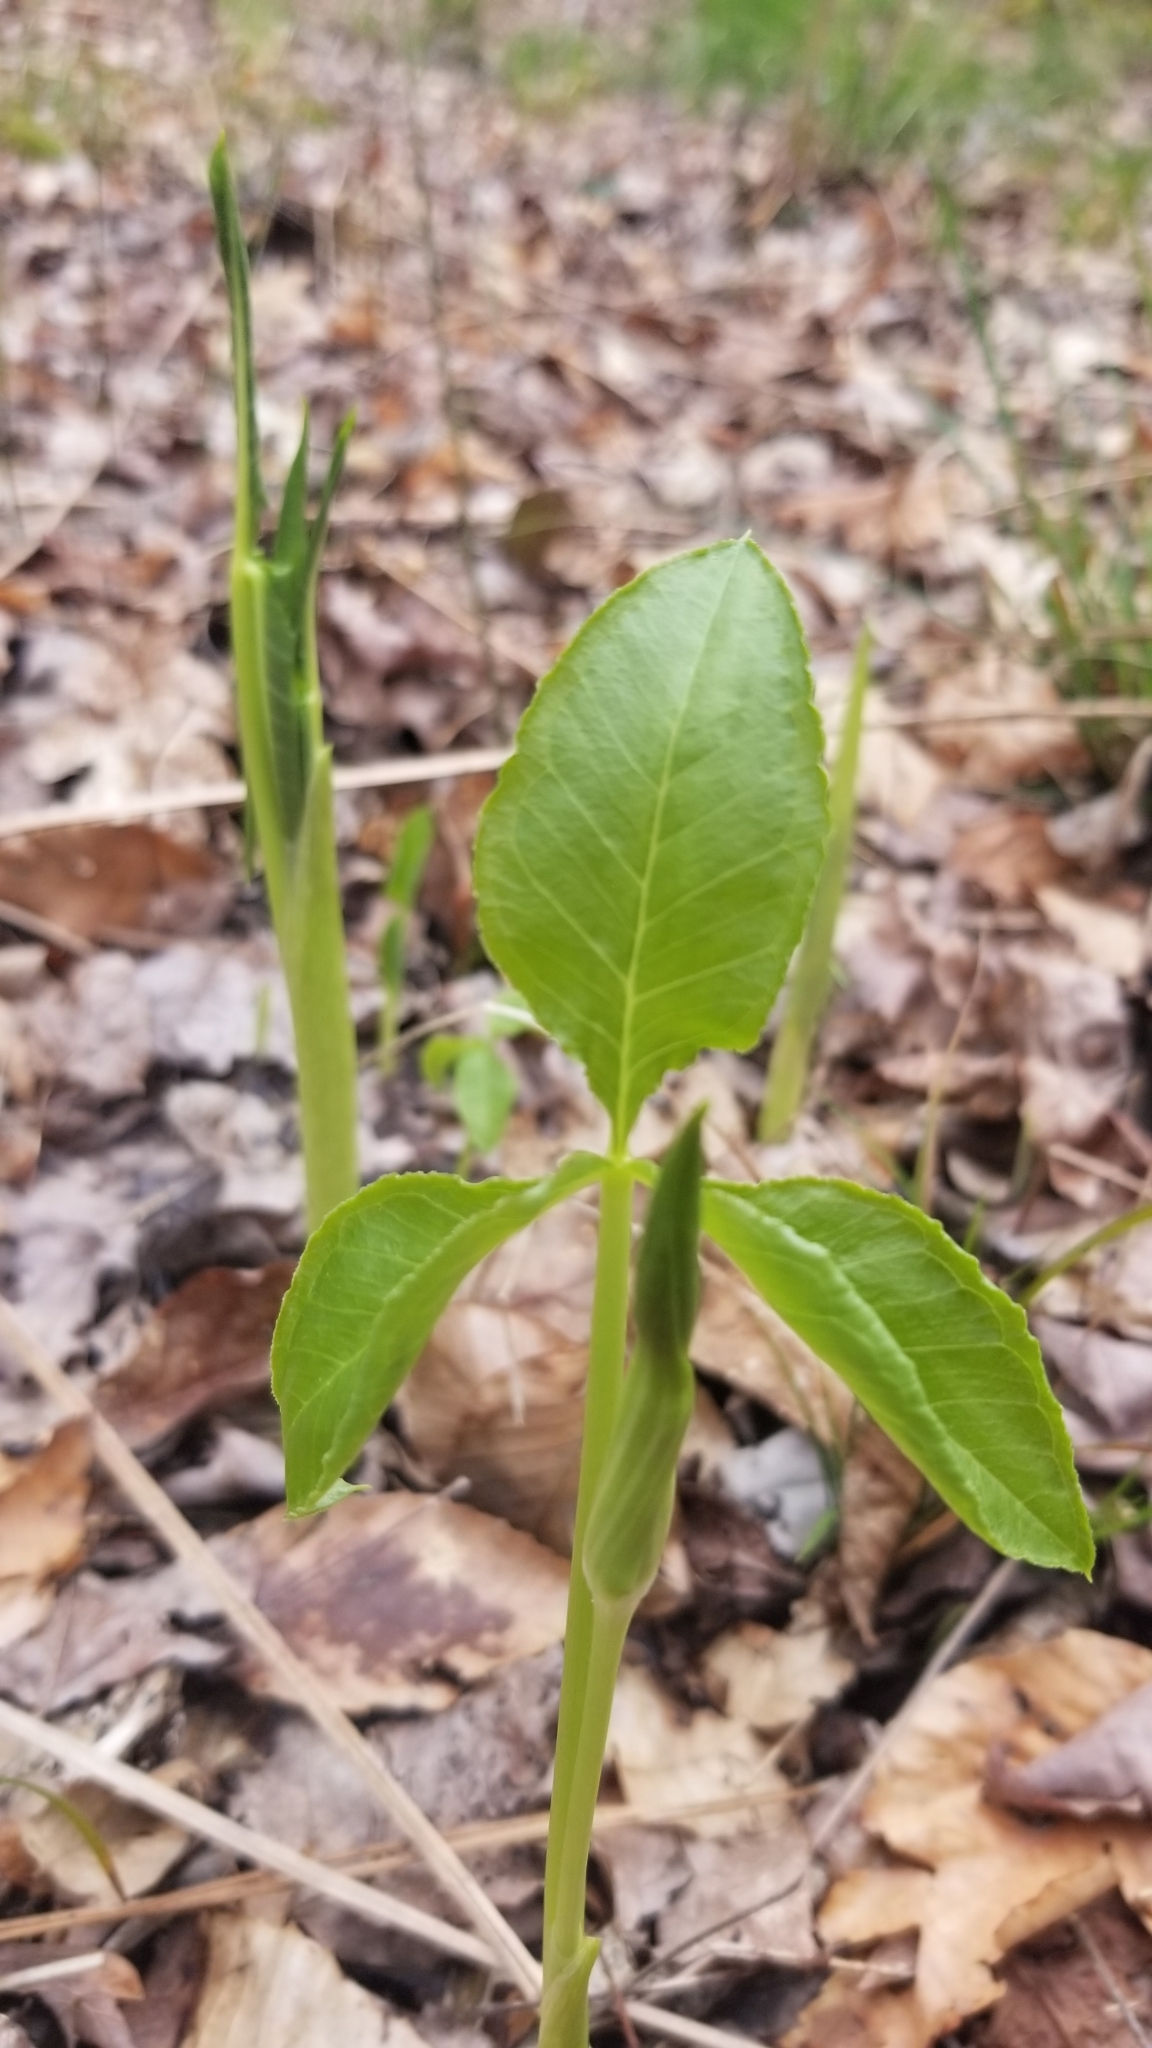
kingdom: Plantae
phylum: Tracheophyta
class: Liliopsida
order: Alismatales
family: Araceae
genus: Arisaema
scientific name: Arisaema triphyllum
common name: Jack-in-the-pulpit
